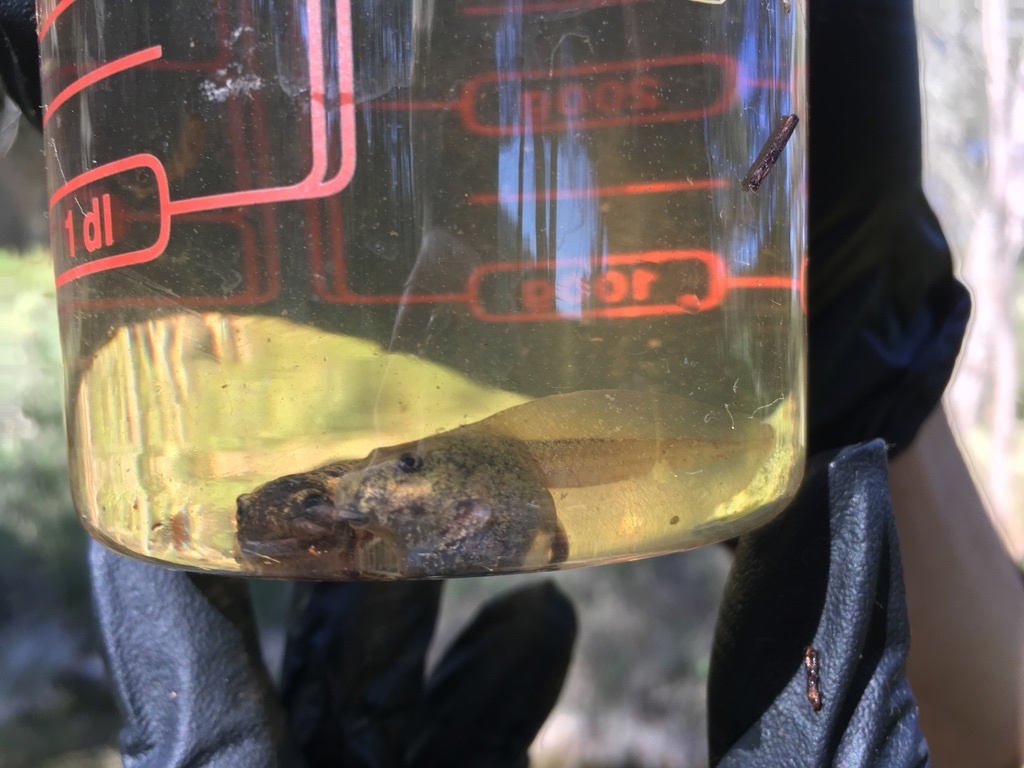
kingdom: Animalia
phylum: Chordata
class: Amphibia
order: Anura
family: Pelodytidae
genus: Pelodytes
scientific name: Pelodytes punctatus
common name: Parsley frog
